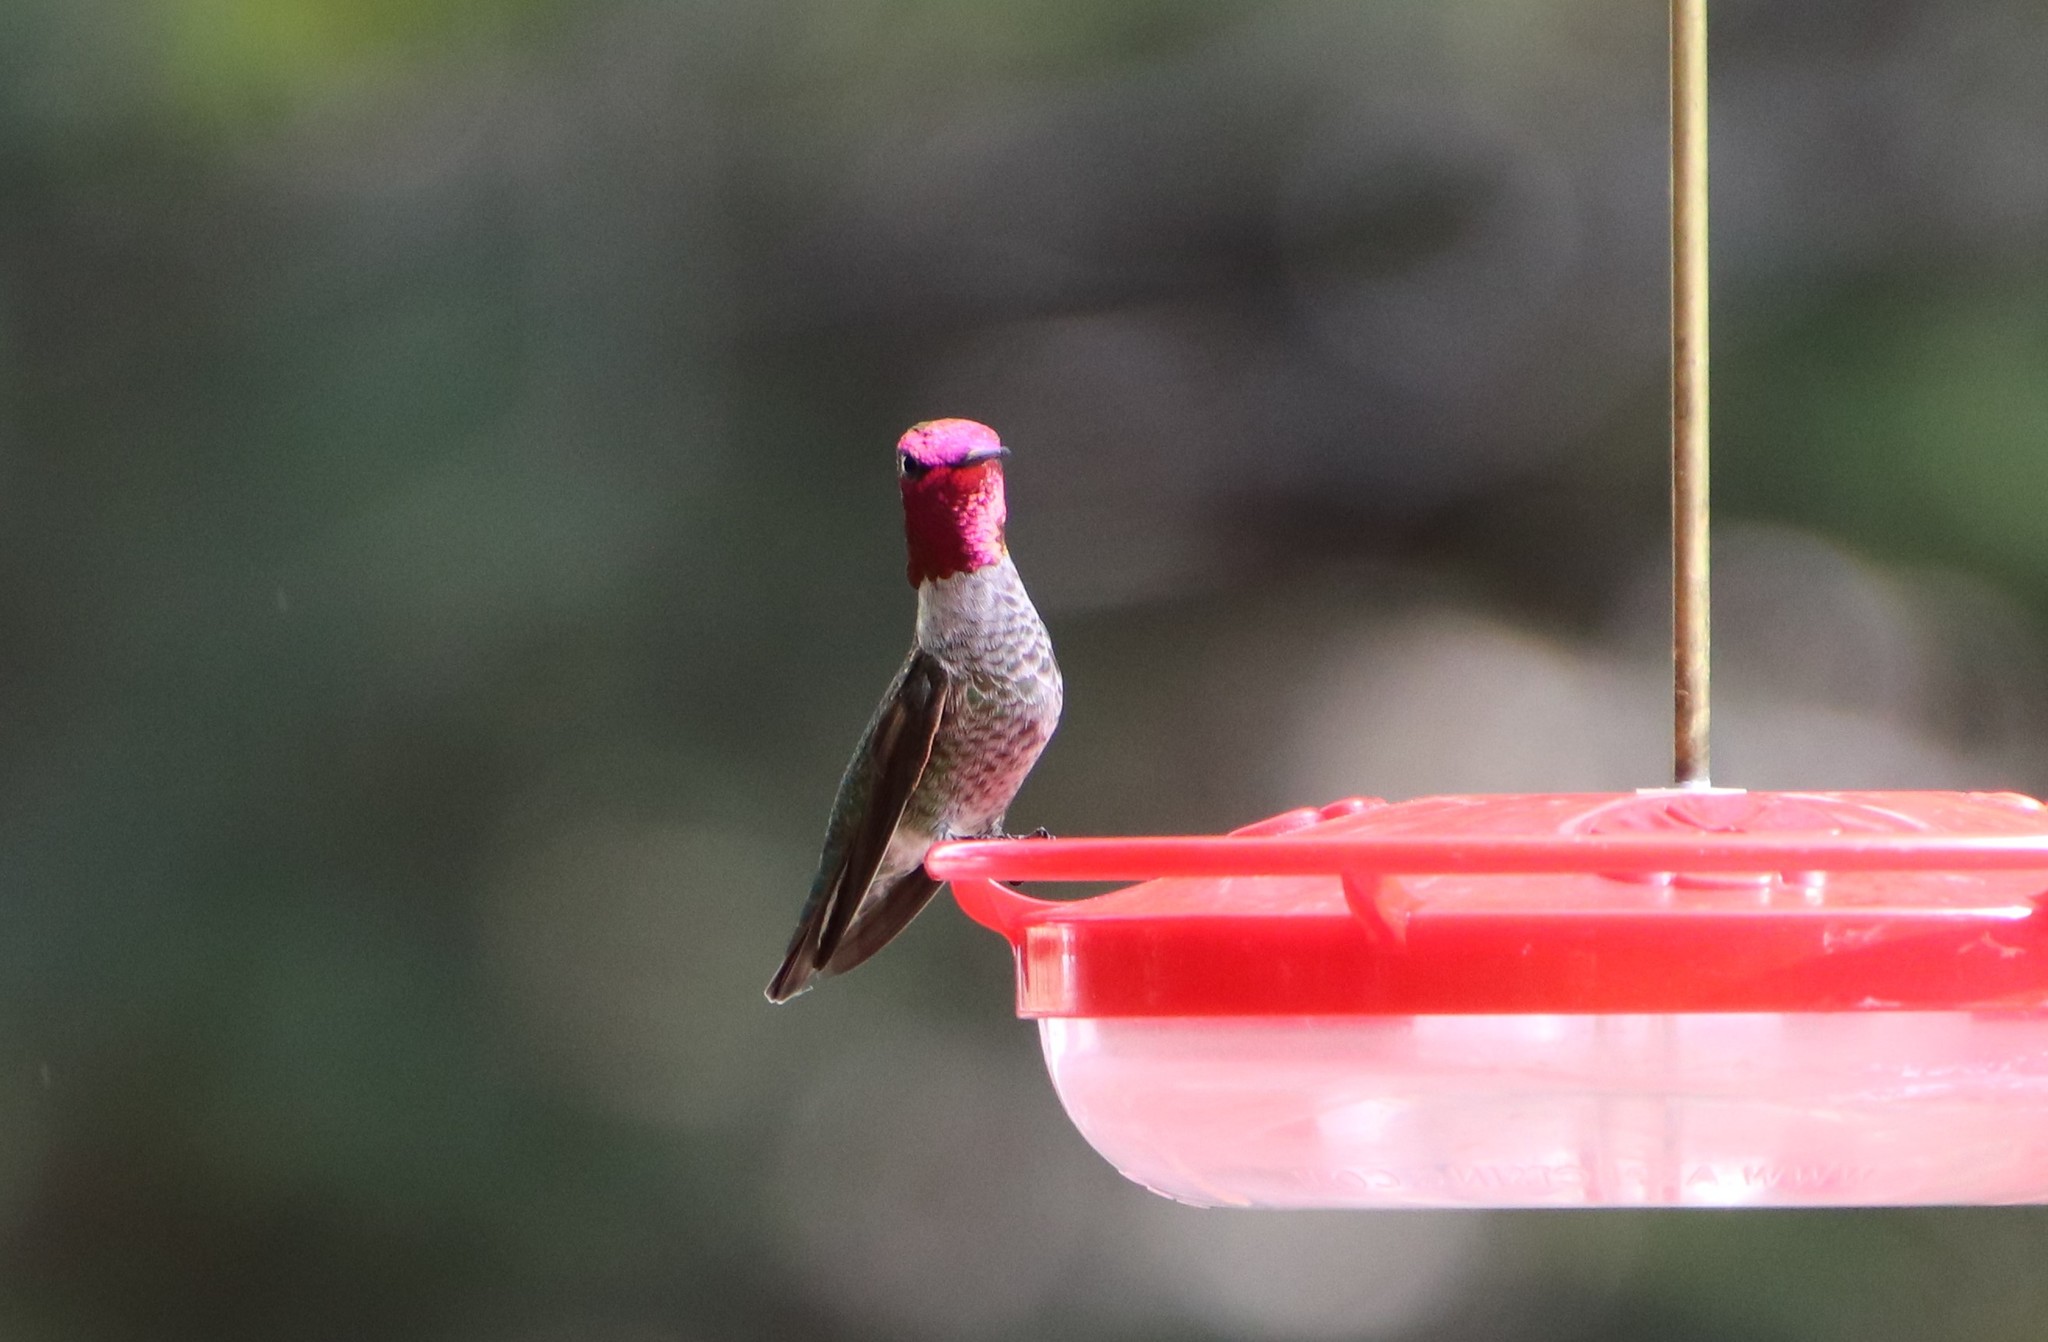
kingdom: Animalia
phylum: Chordata
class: Aves
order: Apodiformes
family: Trochilidae
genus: Calypte
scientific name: Calypte anna
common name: Anna's hummingbird
